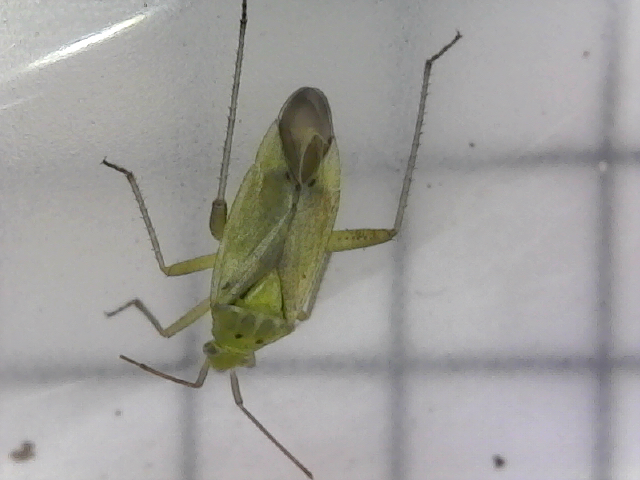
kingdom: Animalia
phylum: Arthropoda
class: Insecta
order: Hemiptera
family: Miridae
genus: Closterotomus
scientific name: Closterotomus norvegicus
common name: Plant bug
